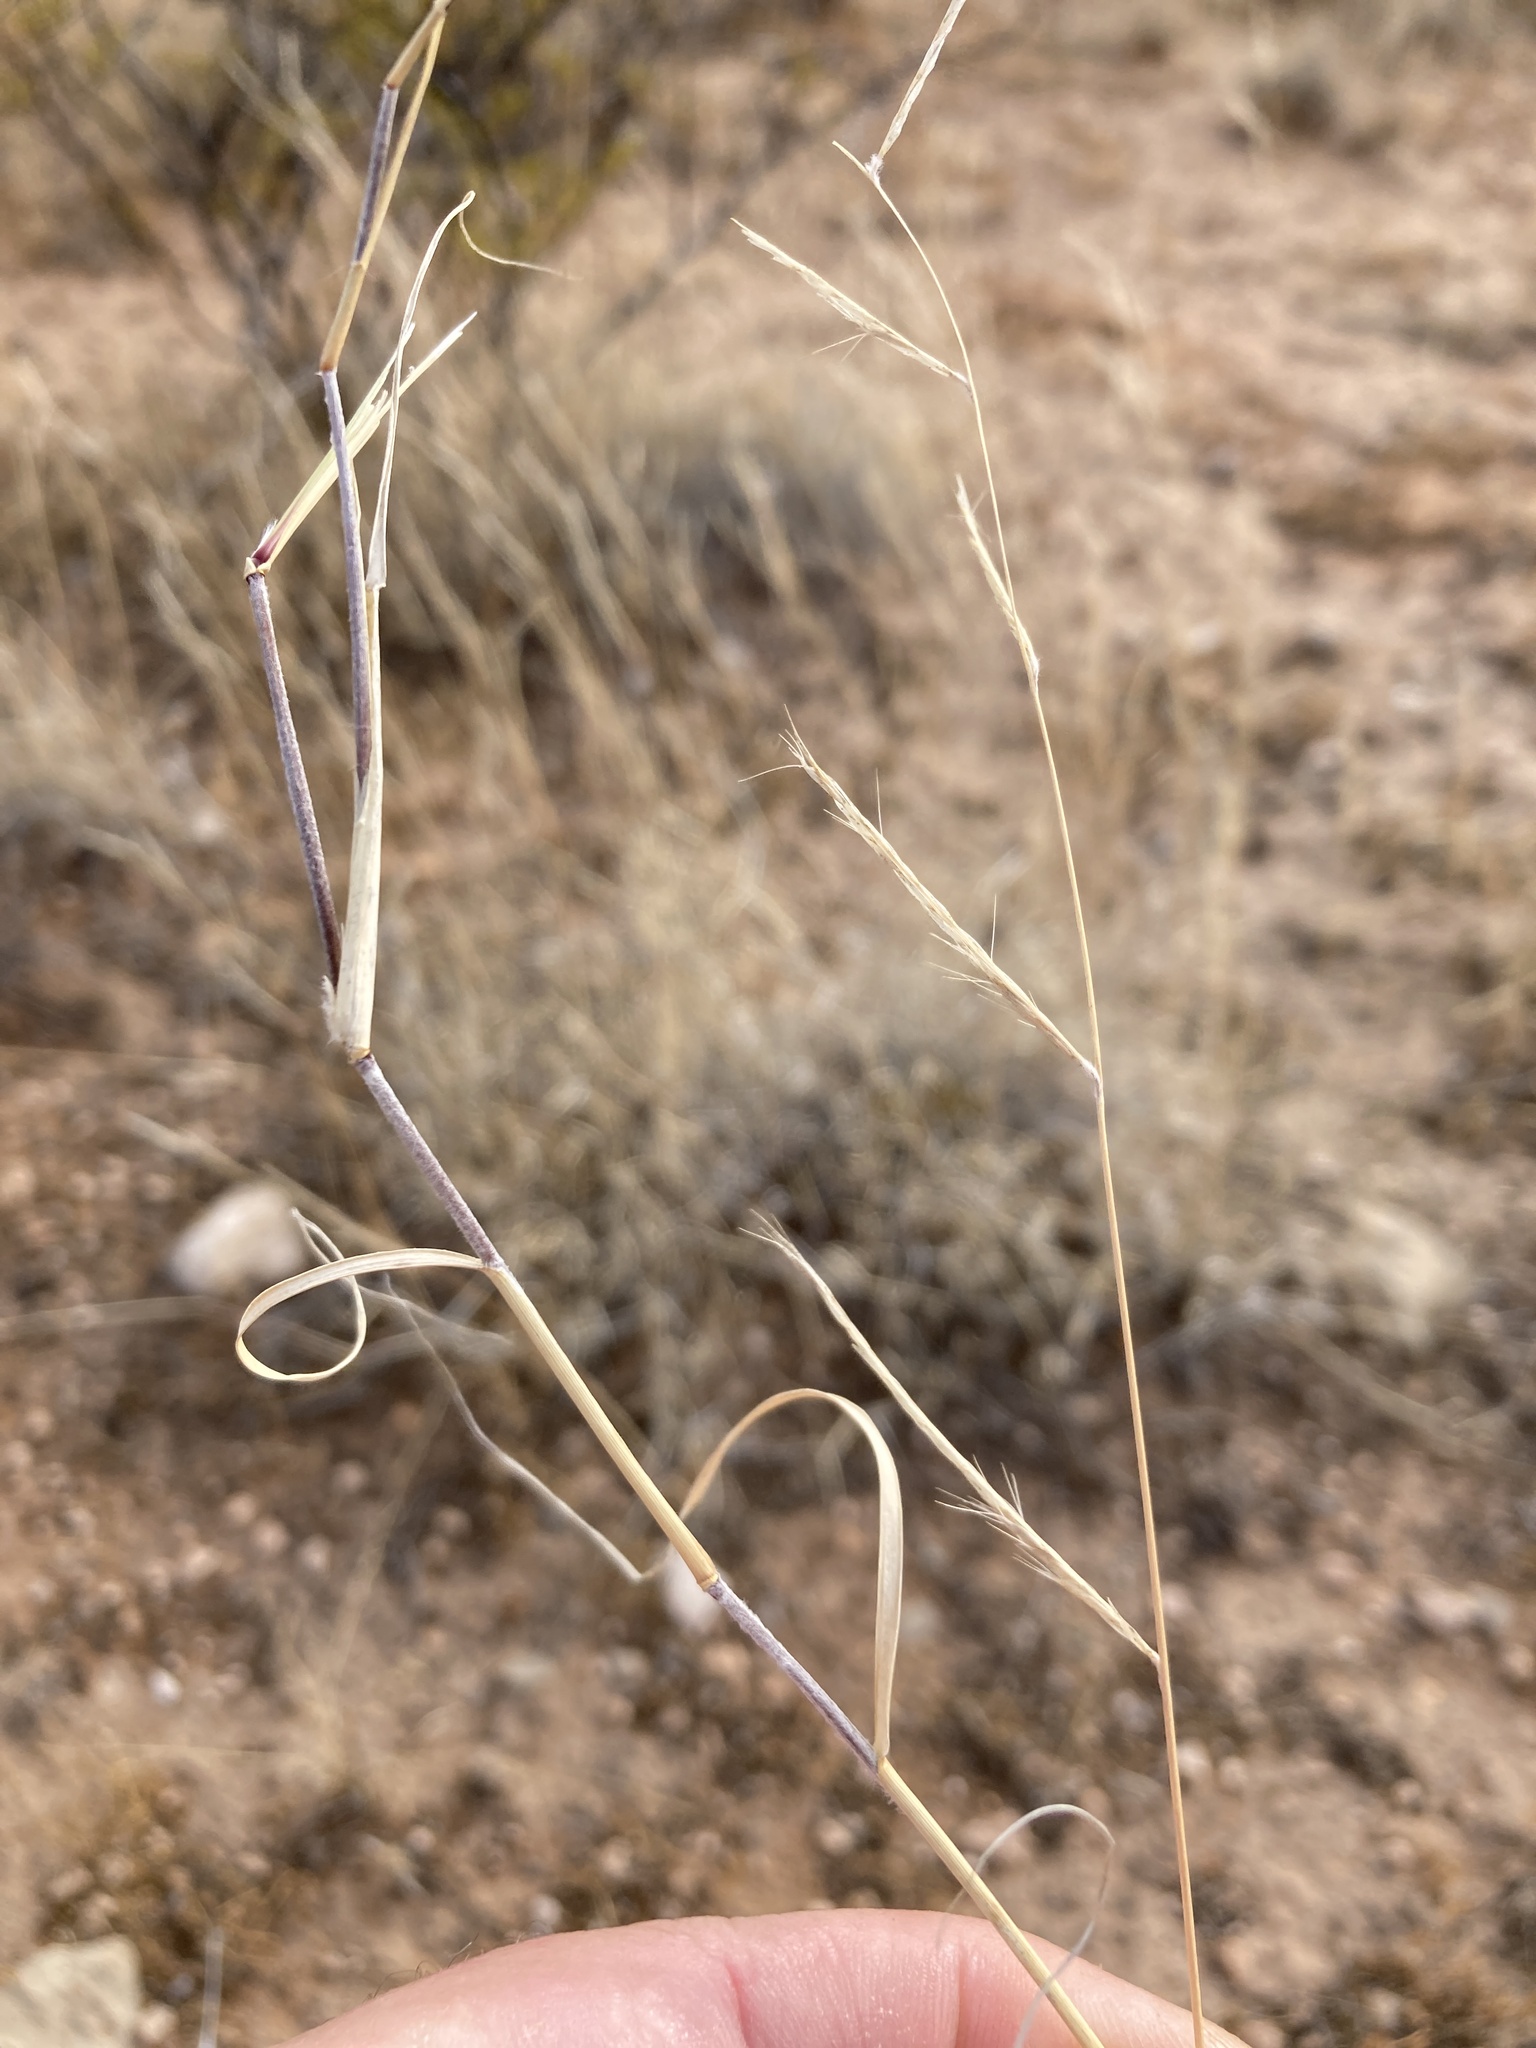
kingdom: Plantae
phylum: Tracheophyta
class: Liliopsida
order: Poales
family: Poaceae
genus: Bouteloua
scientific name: Bouteloua eriopoda
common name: Woolly foot grama
